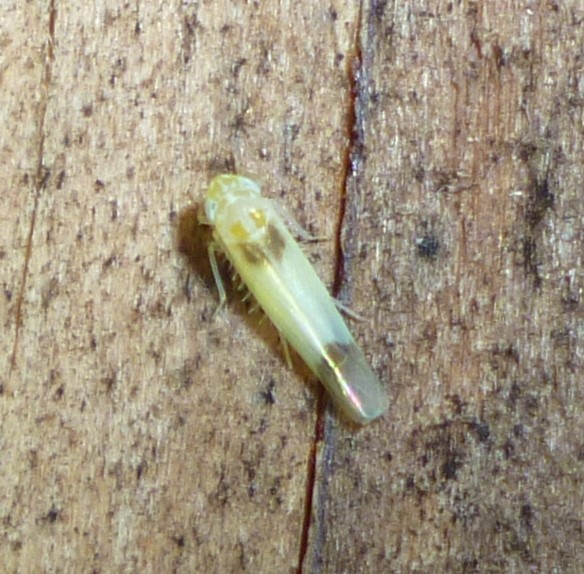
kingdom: Animalia
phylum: Arthropoda
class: Insecta
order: Hemiptera
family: Cicadellidae
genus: Empoasca
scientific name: Empoasca
